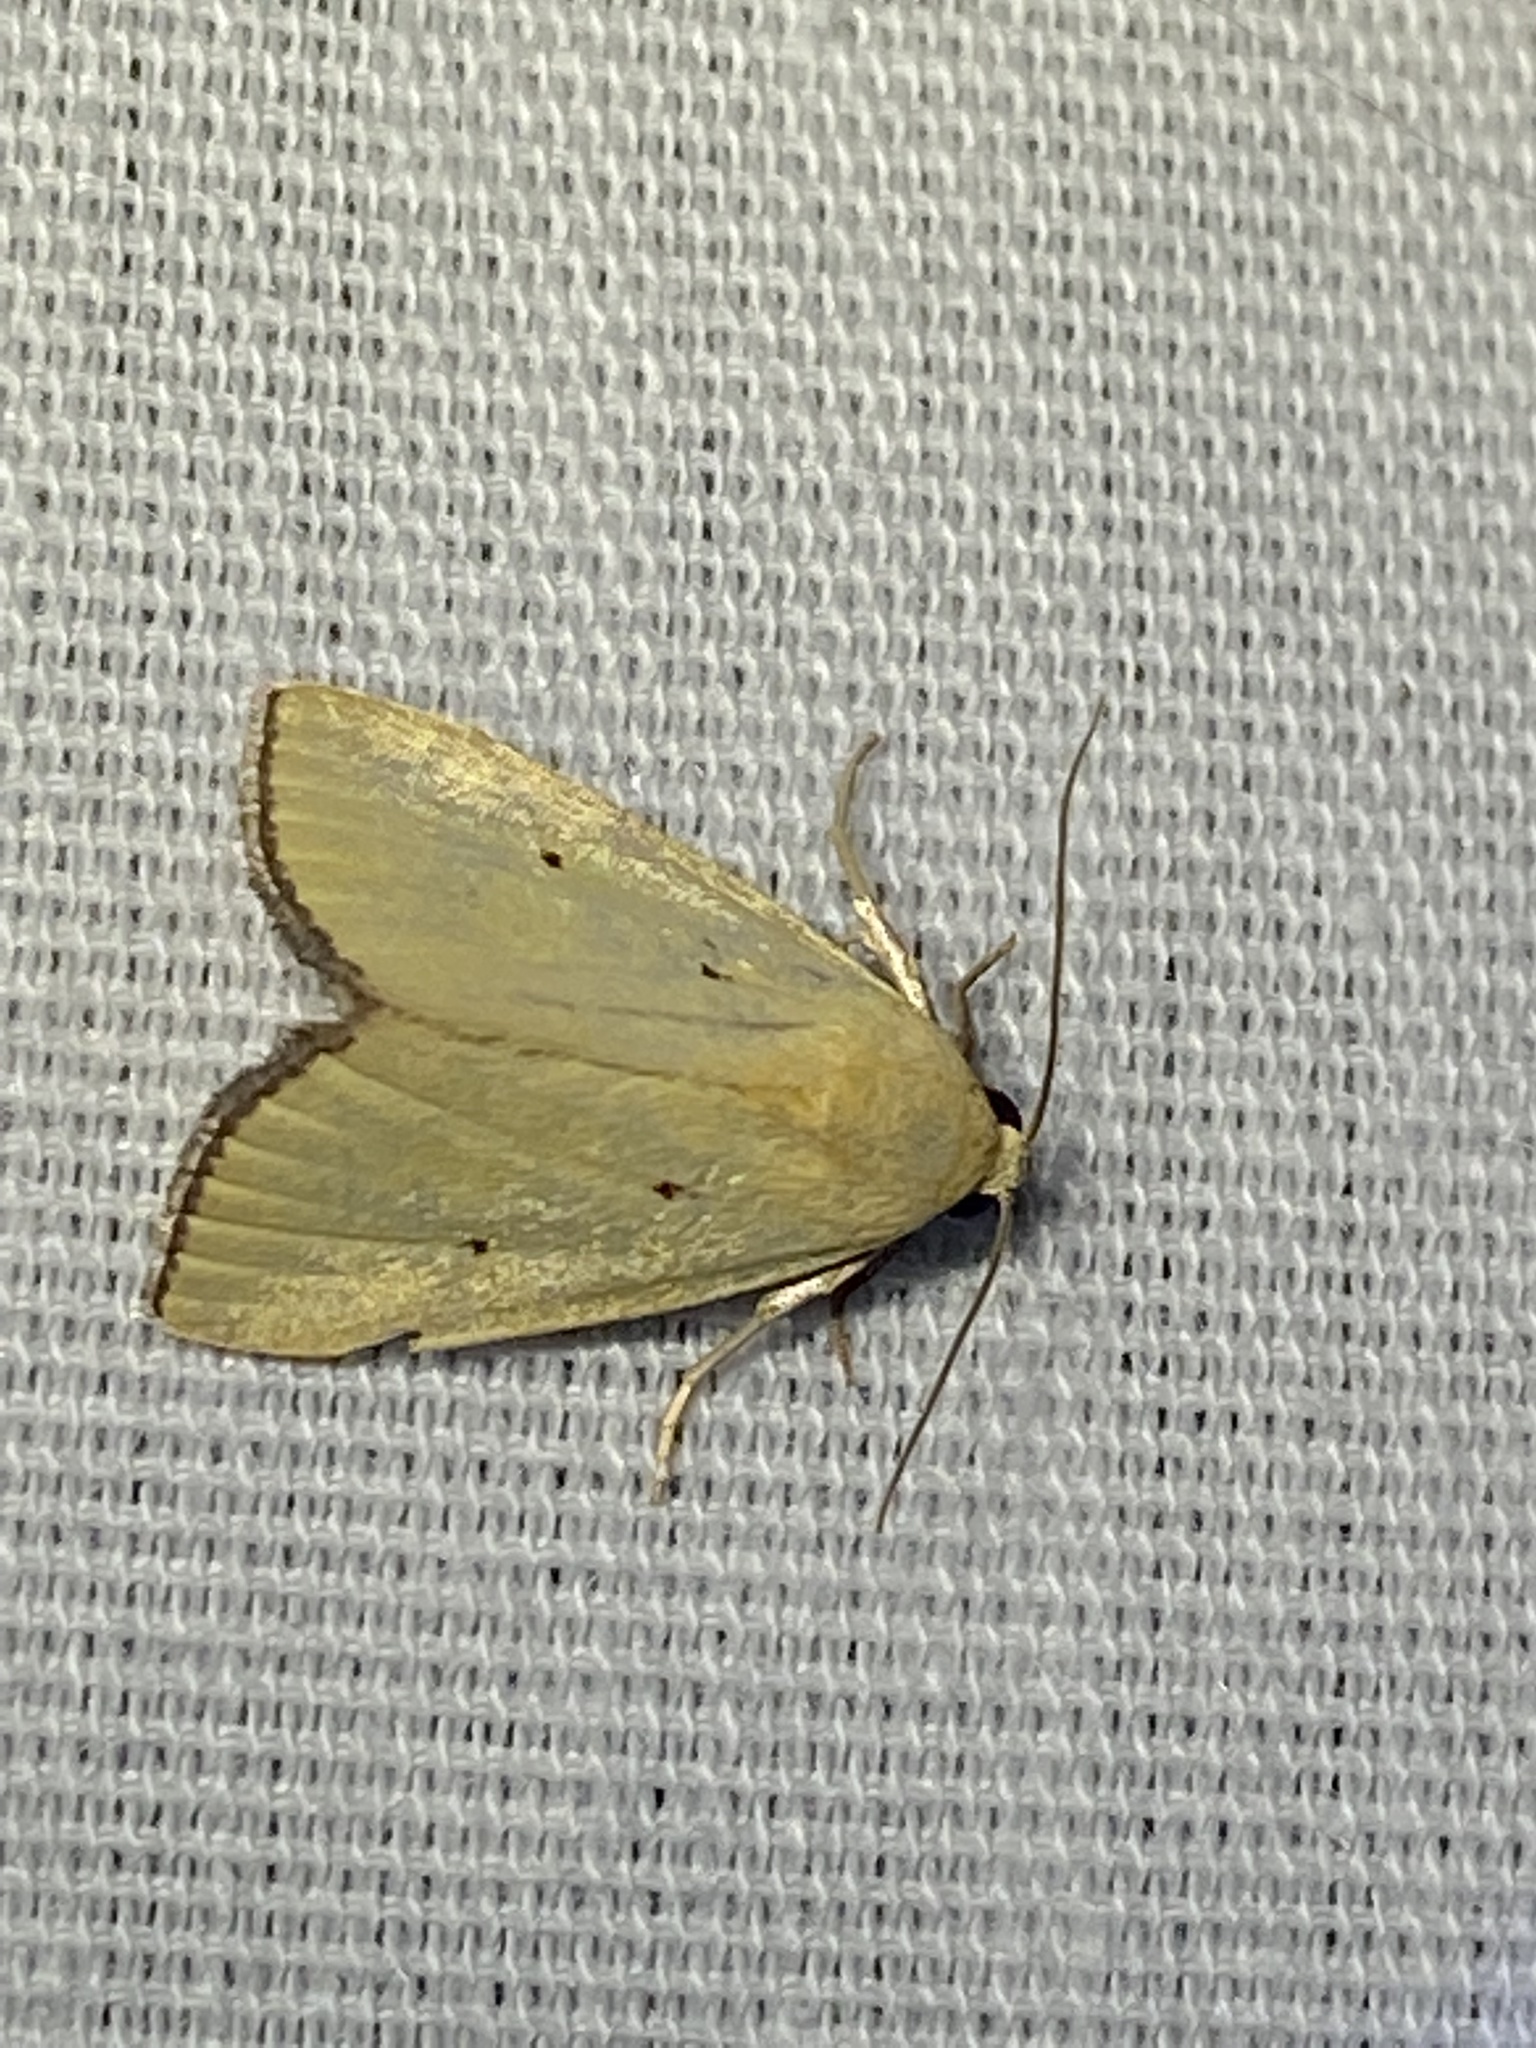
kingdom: Animalia
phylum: Arthropoda
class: Insecta
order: Lepidoptera
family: Noctuidae
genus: Marimatha
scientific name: Marimatha nigrofimbria
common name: Black-bordered lemon moth
